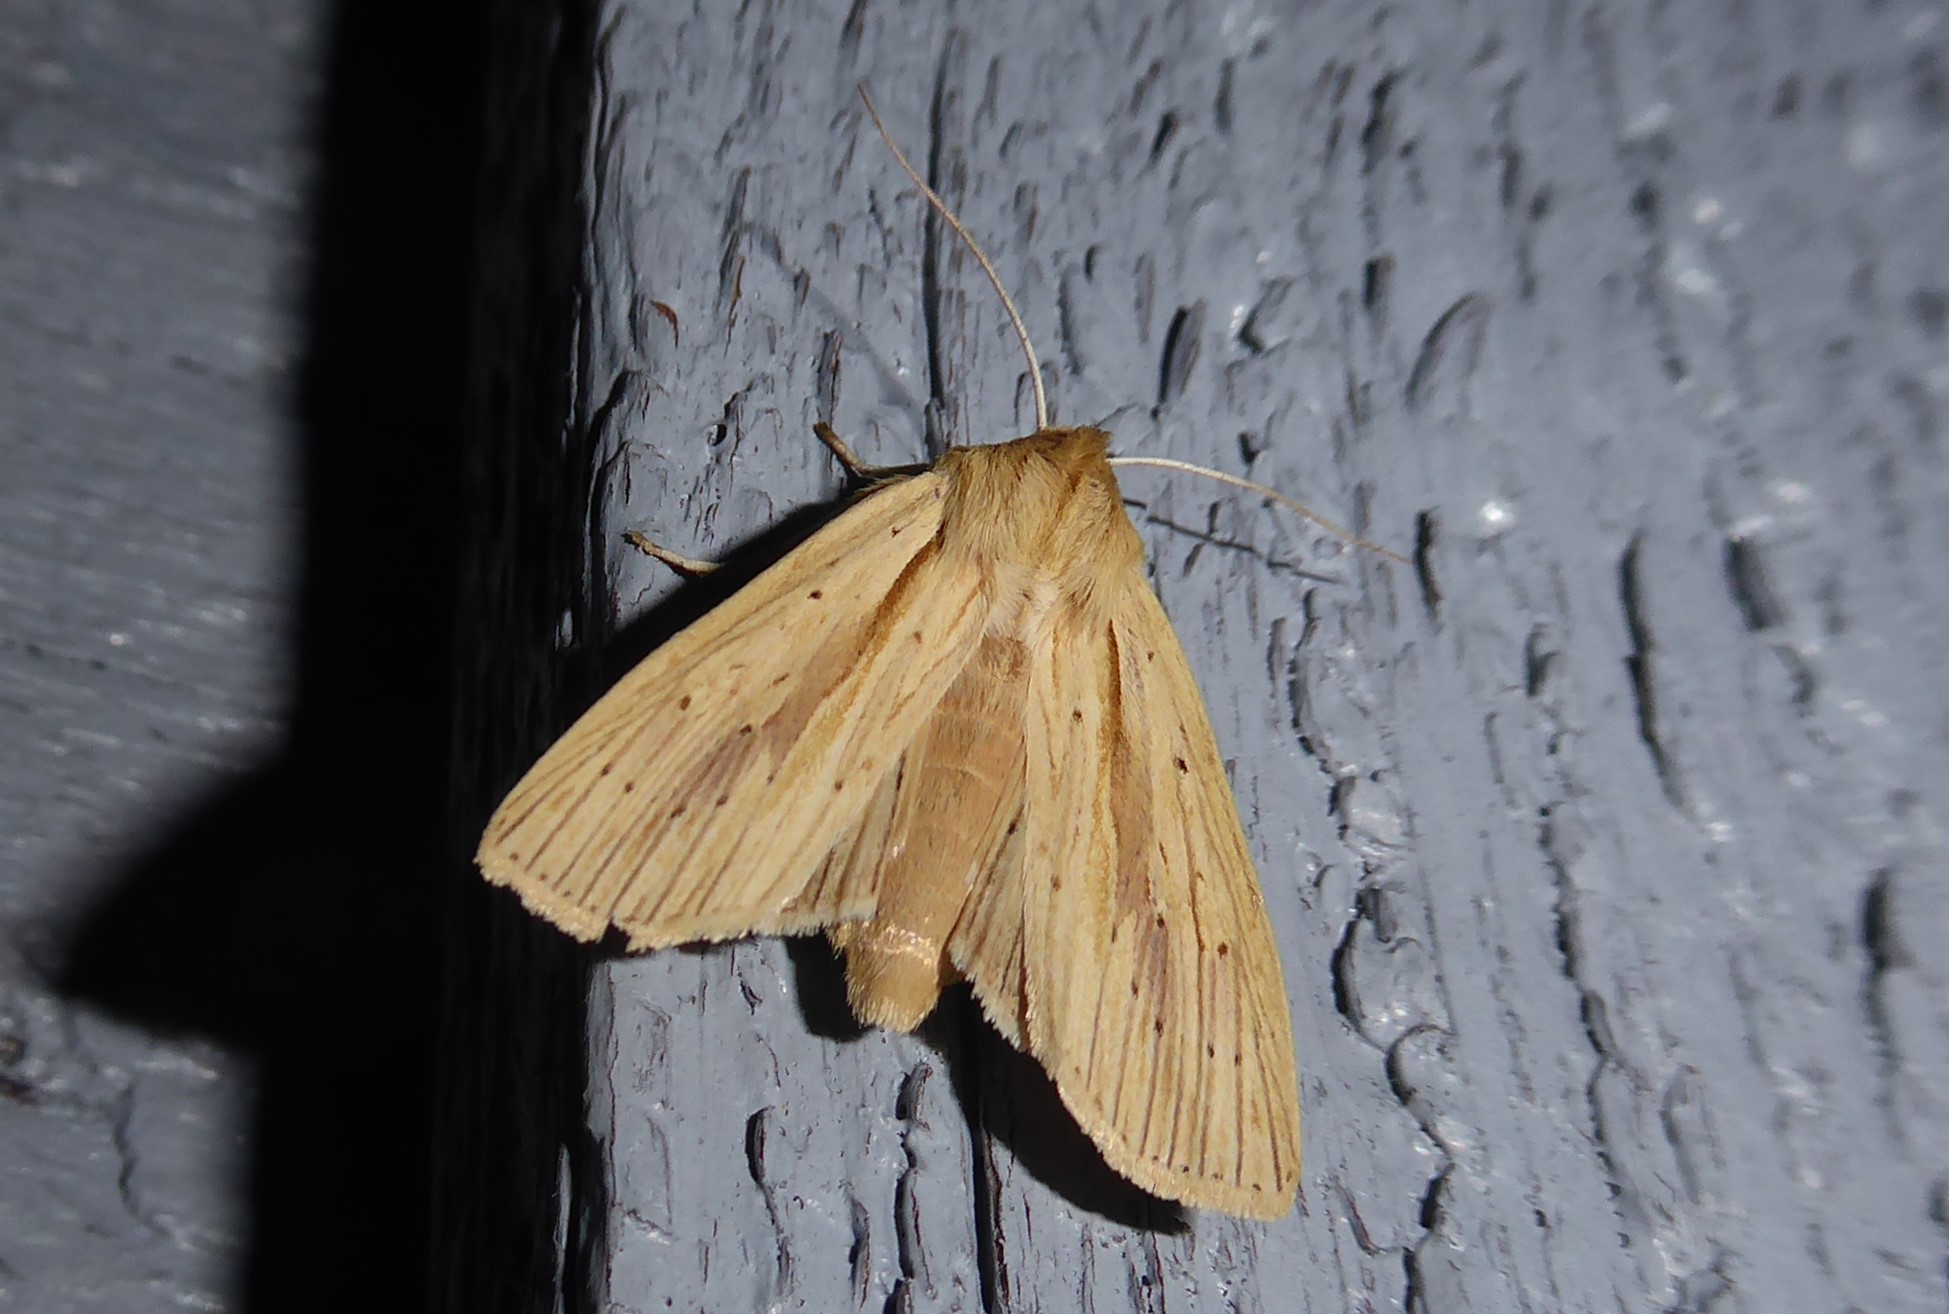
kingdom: Animalia
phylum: Arthropoda
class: Insecta
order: Lepidoptera
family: Noctuidae
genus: Ichneutica
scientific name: Ichneutica semivittata
